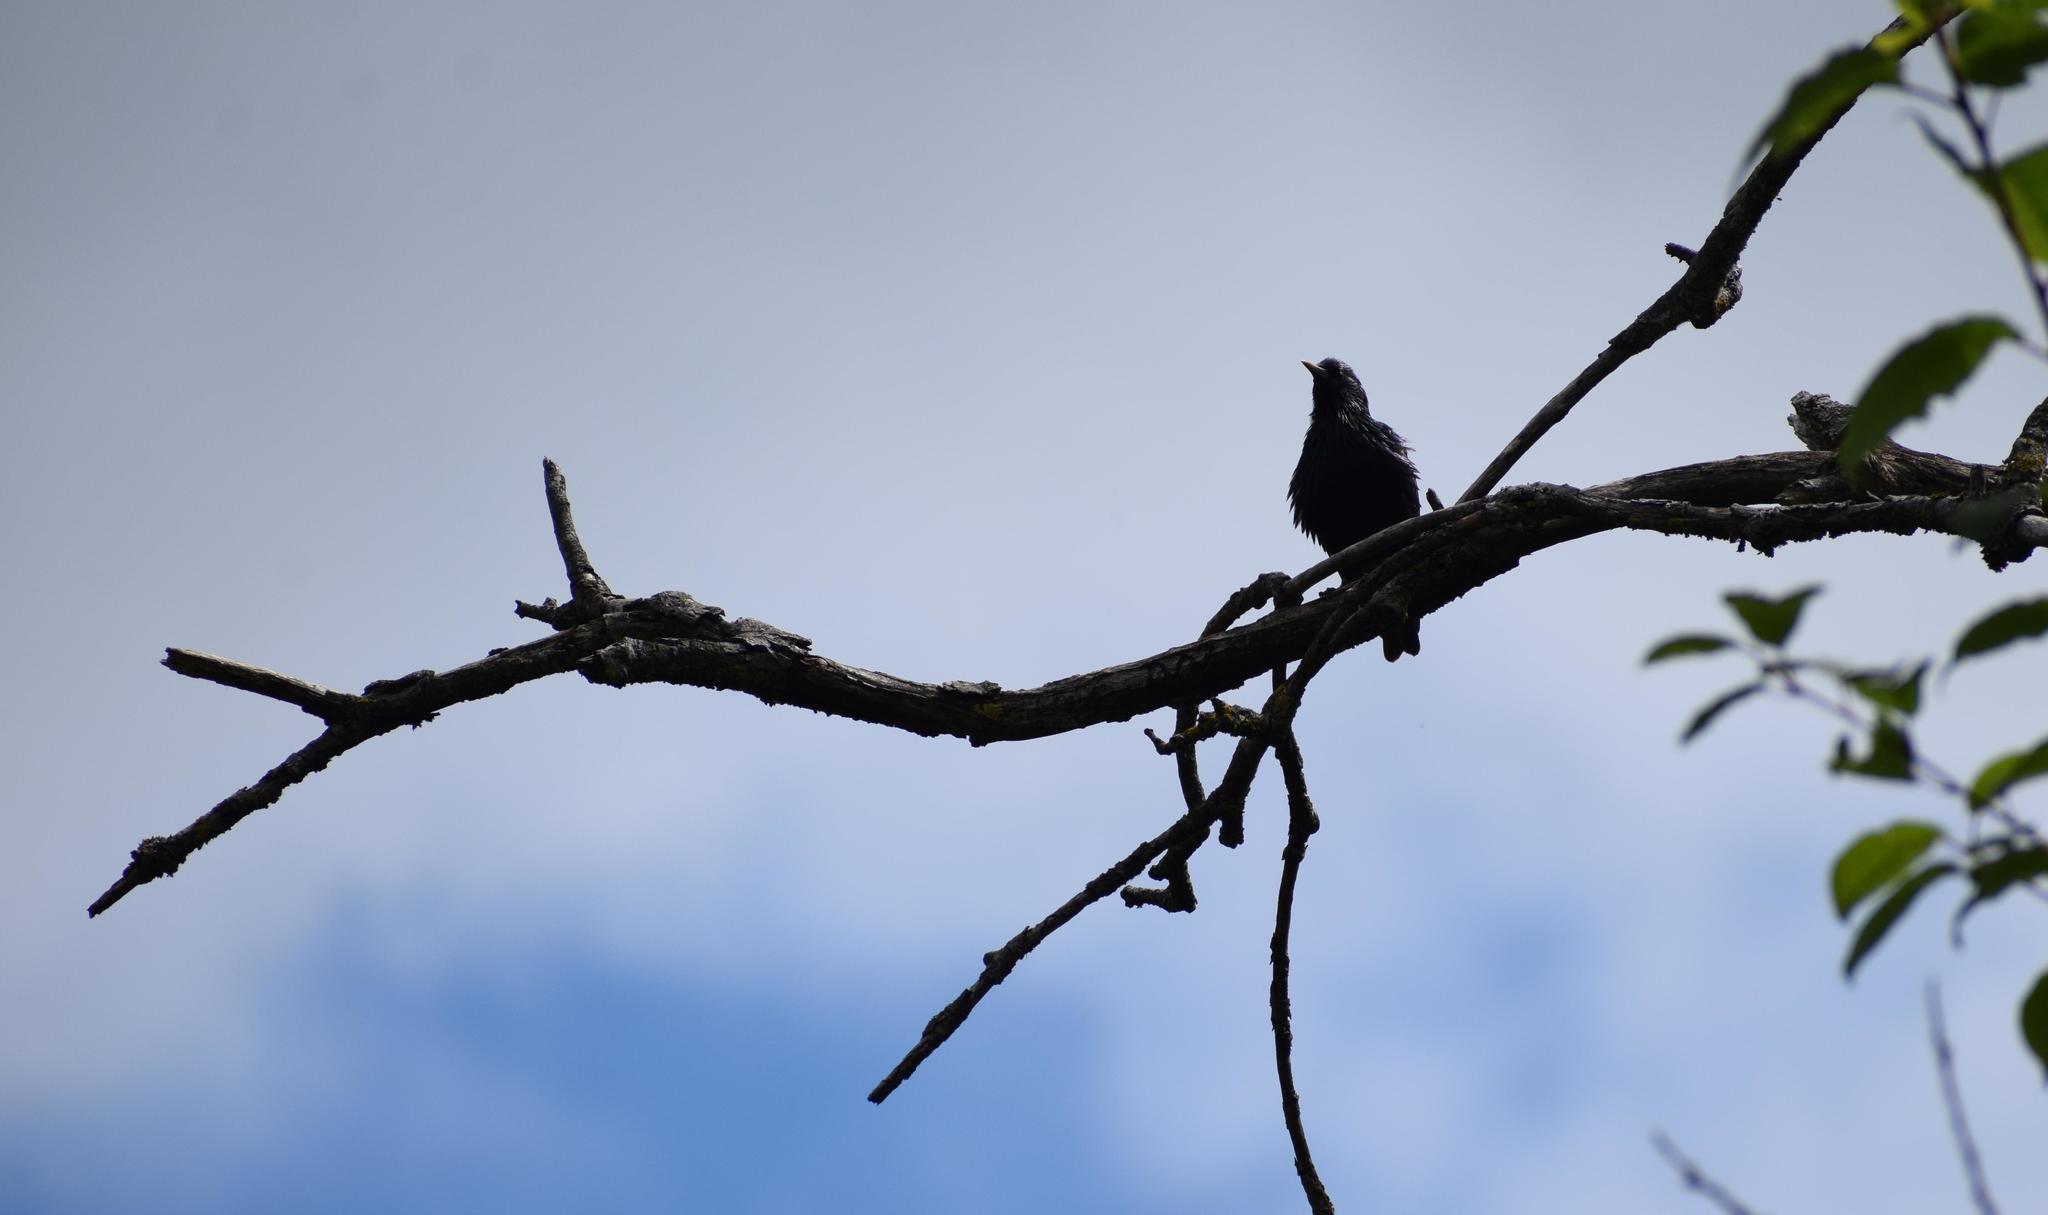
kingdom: Animalia
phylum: Chordata
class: Aves
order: Passeriformes
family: Sturnidae
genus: Sturnus
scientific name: Sturnus vulgaris
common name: Common starling
